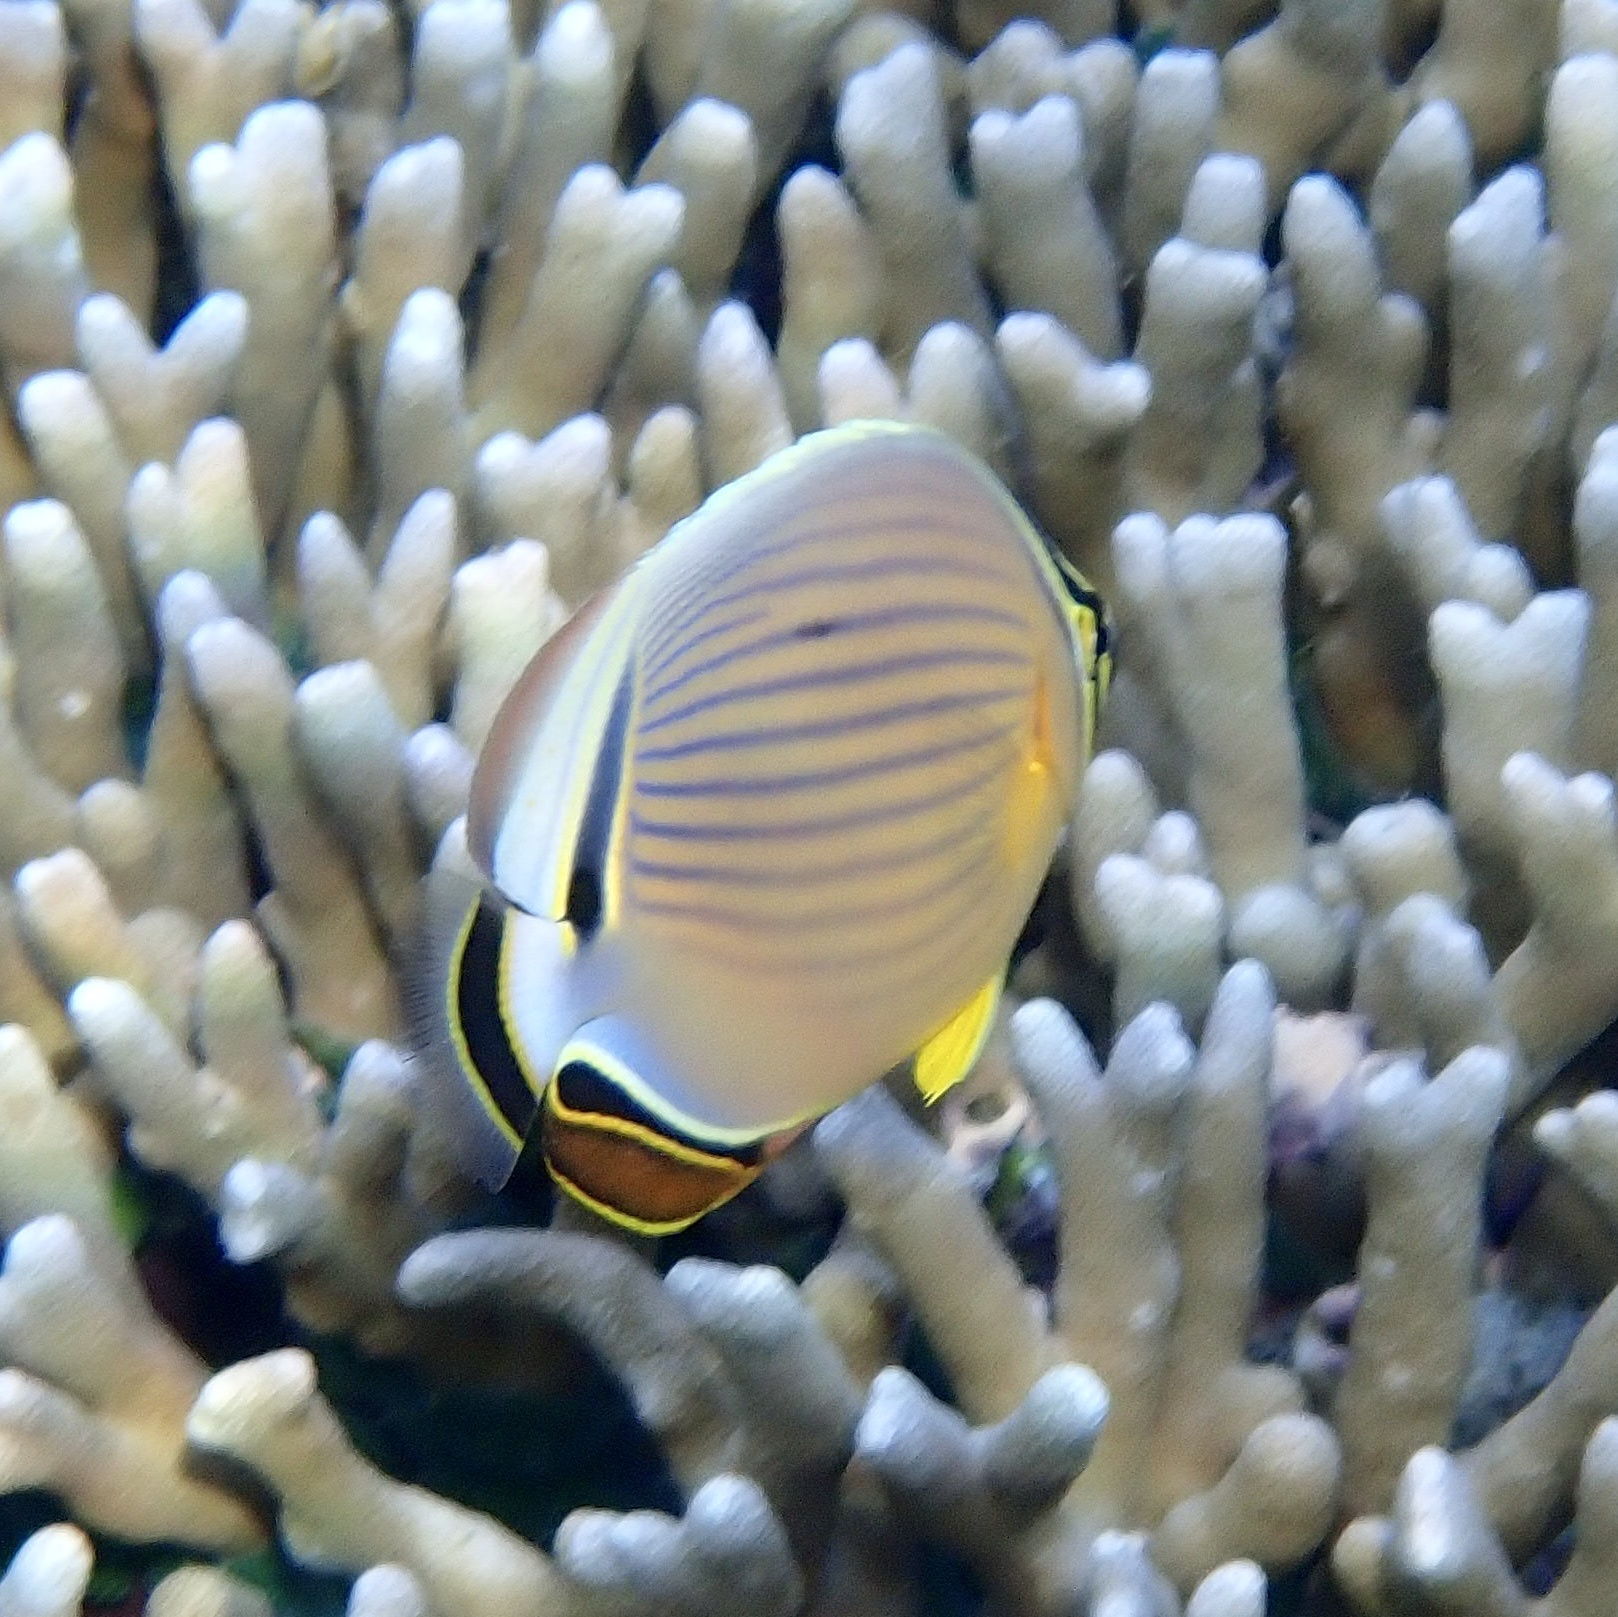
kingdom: Animalia
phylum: Chordata
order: Perciformes
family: Chaetodontidae
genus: Chaetodon
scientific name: Chaetodon lunulatus
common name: Redfin butterflyfish
